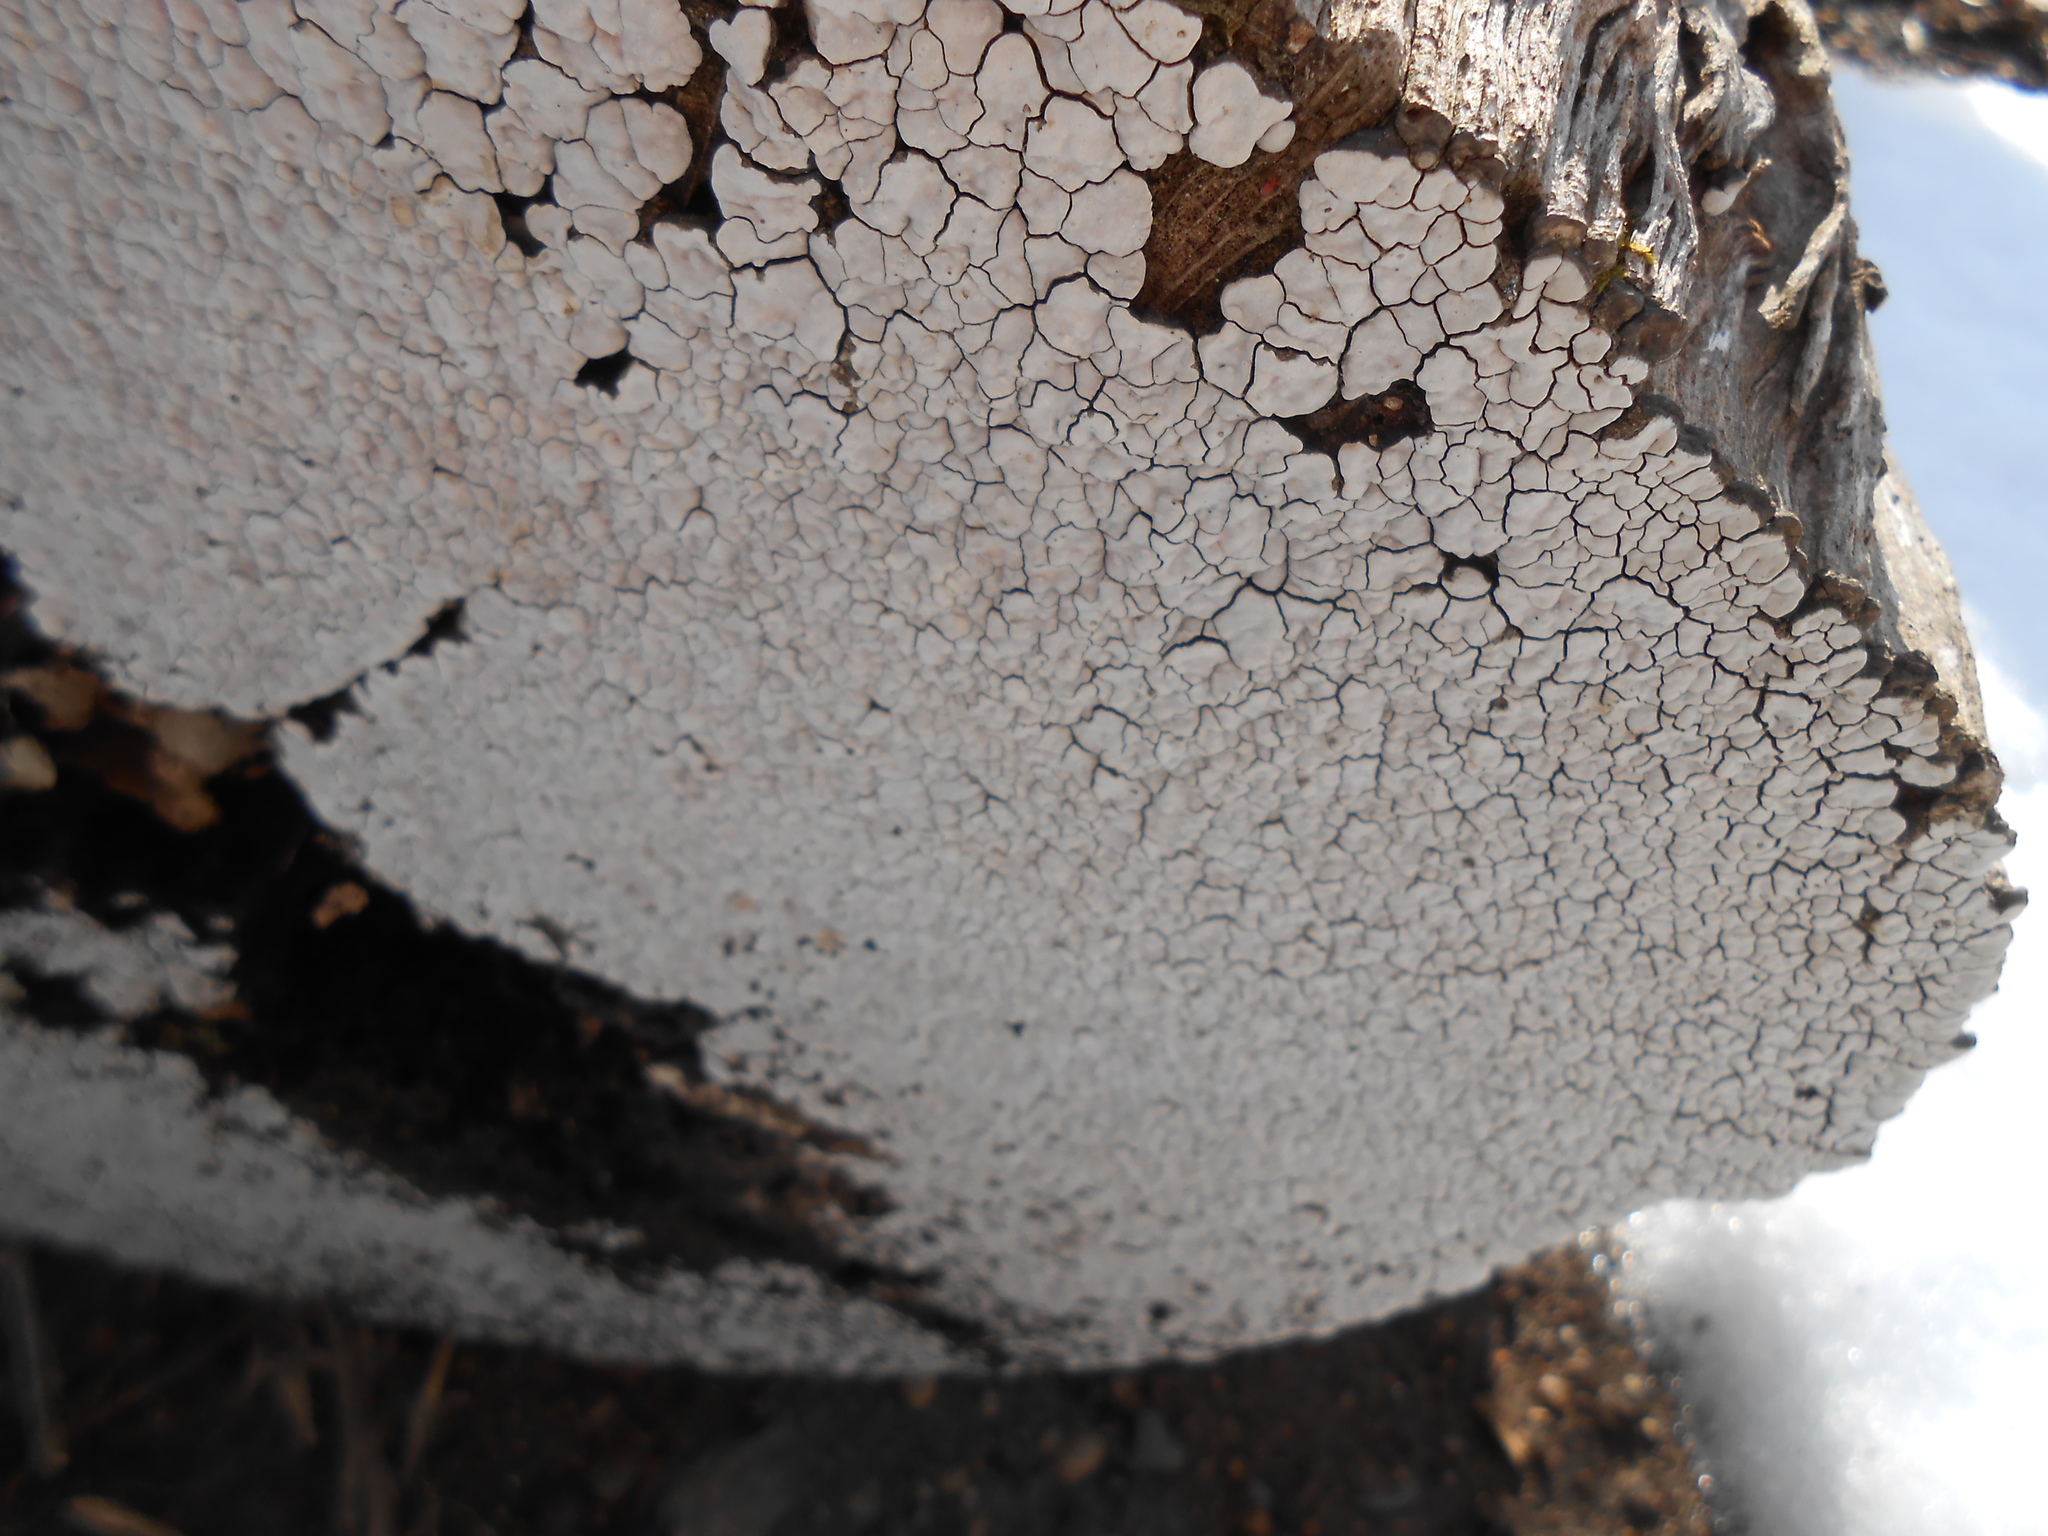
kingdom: Fungi
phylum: Basidiomycota
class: Agaricomycetes
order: Russulales
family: Stereaceae
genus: Xylobolus
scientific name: Xylobolus frustulatus
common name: Ceramic parchment
